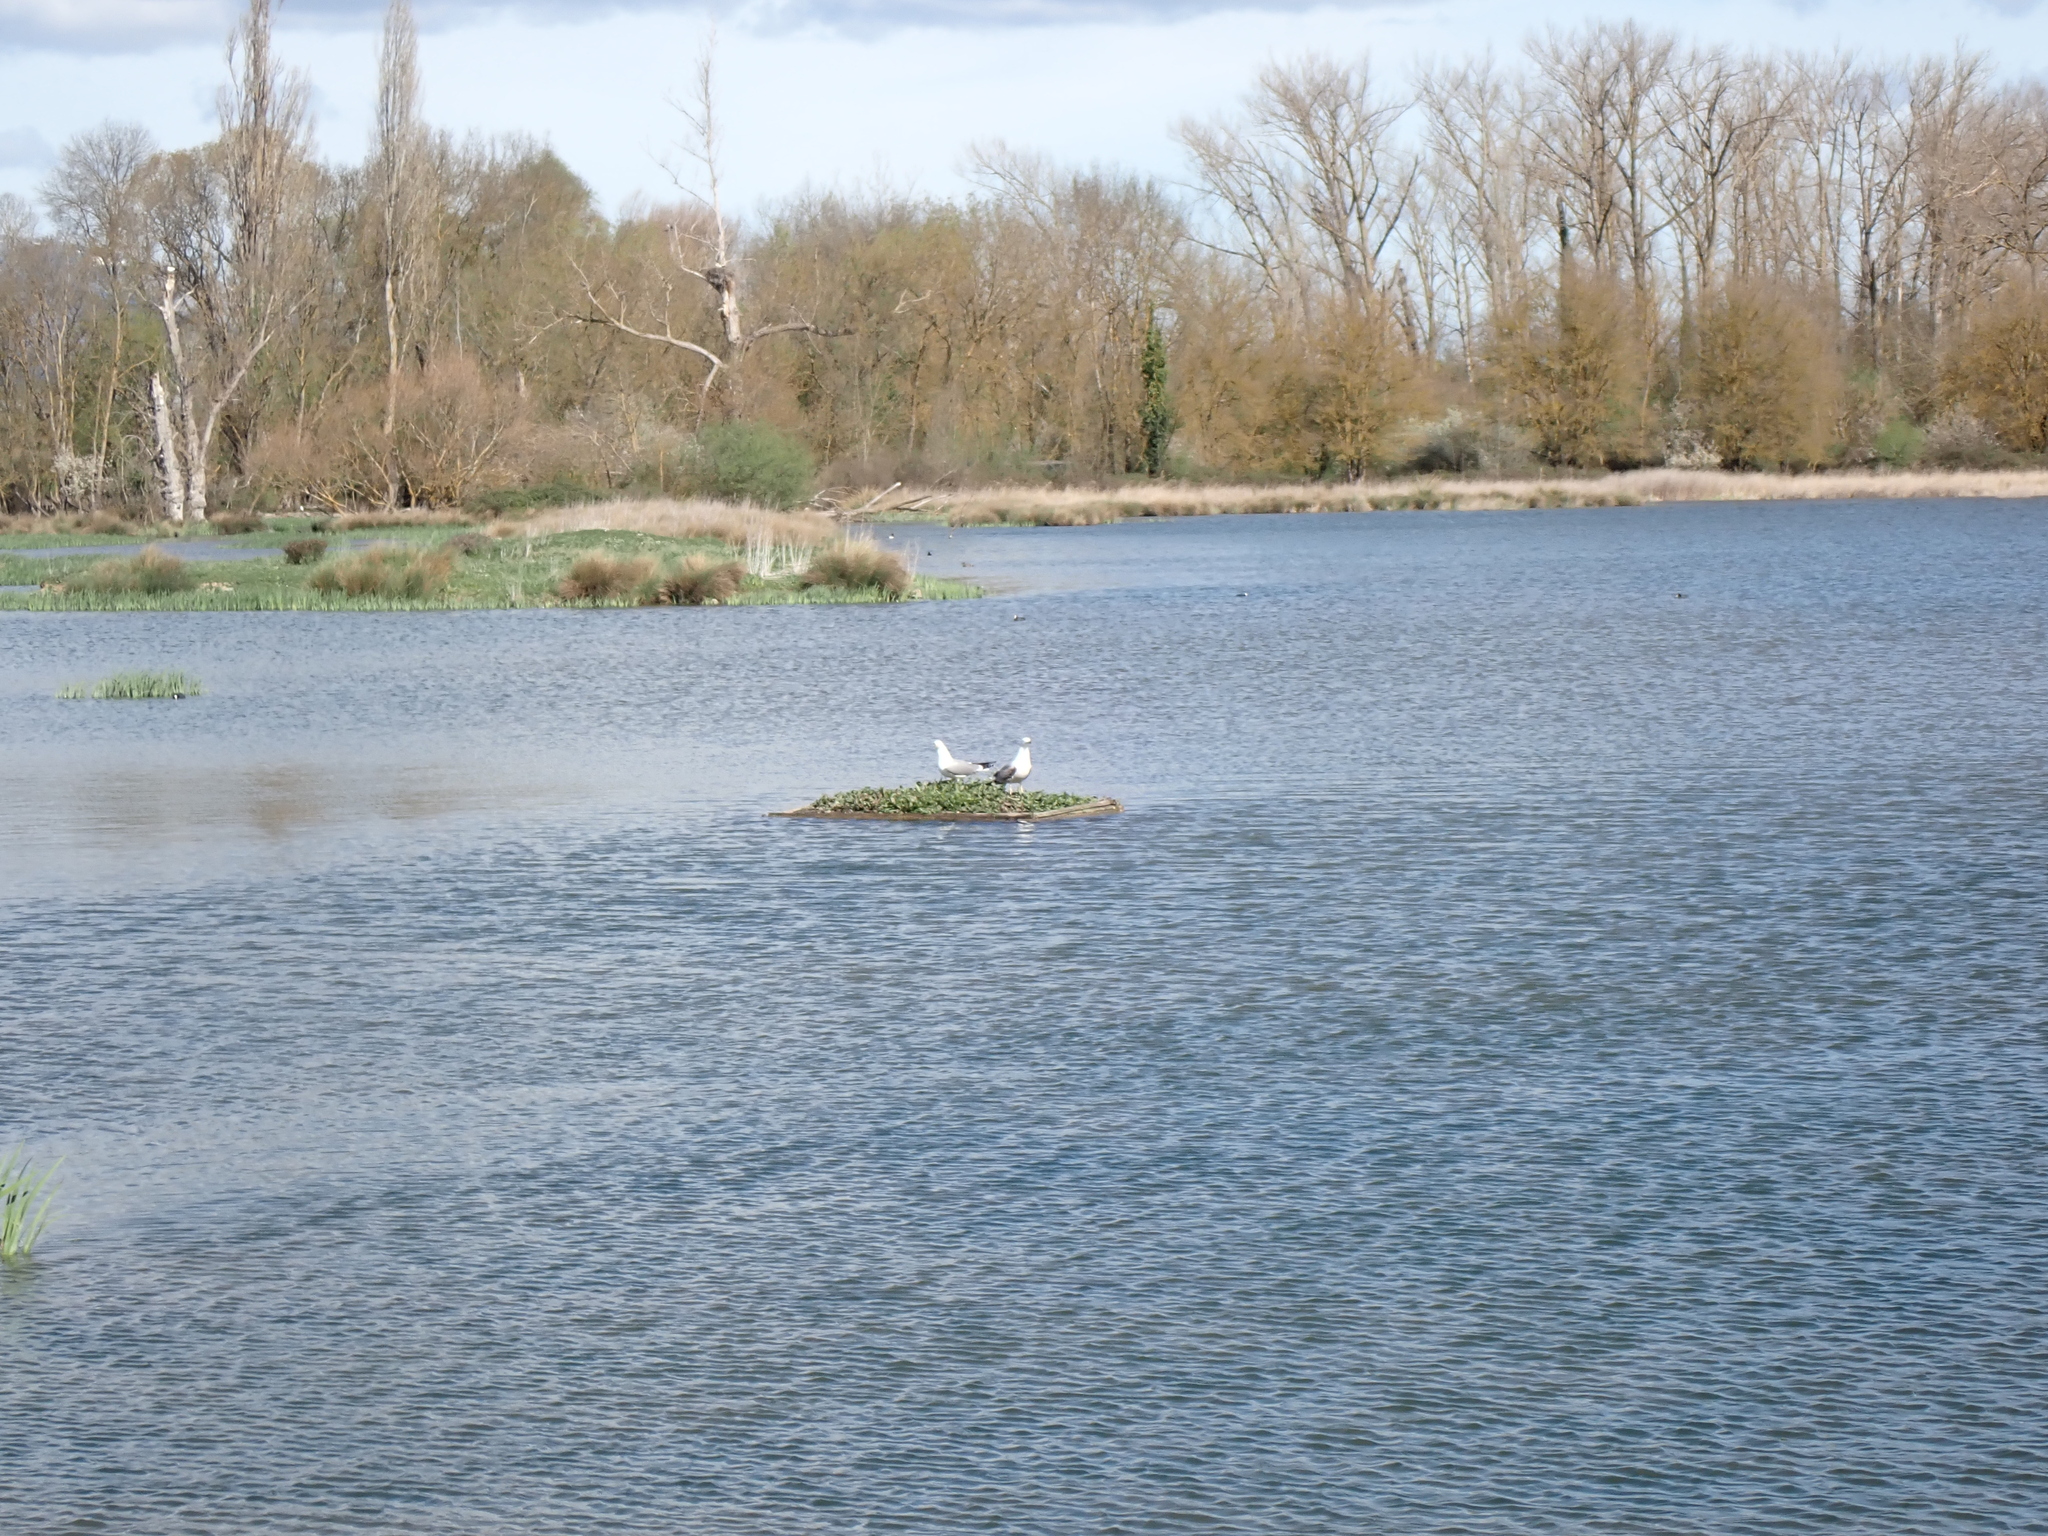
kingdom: Animalia
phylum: Chordata
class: Aves
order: Charadriiformes
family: Laridae
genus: Larus
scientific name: Larus michahellis
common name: Yellow-legged gull
